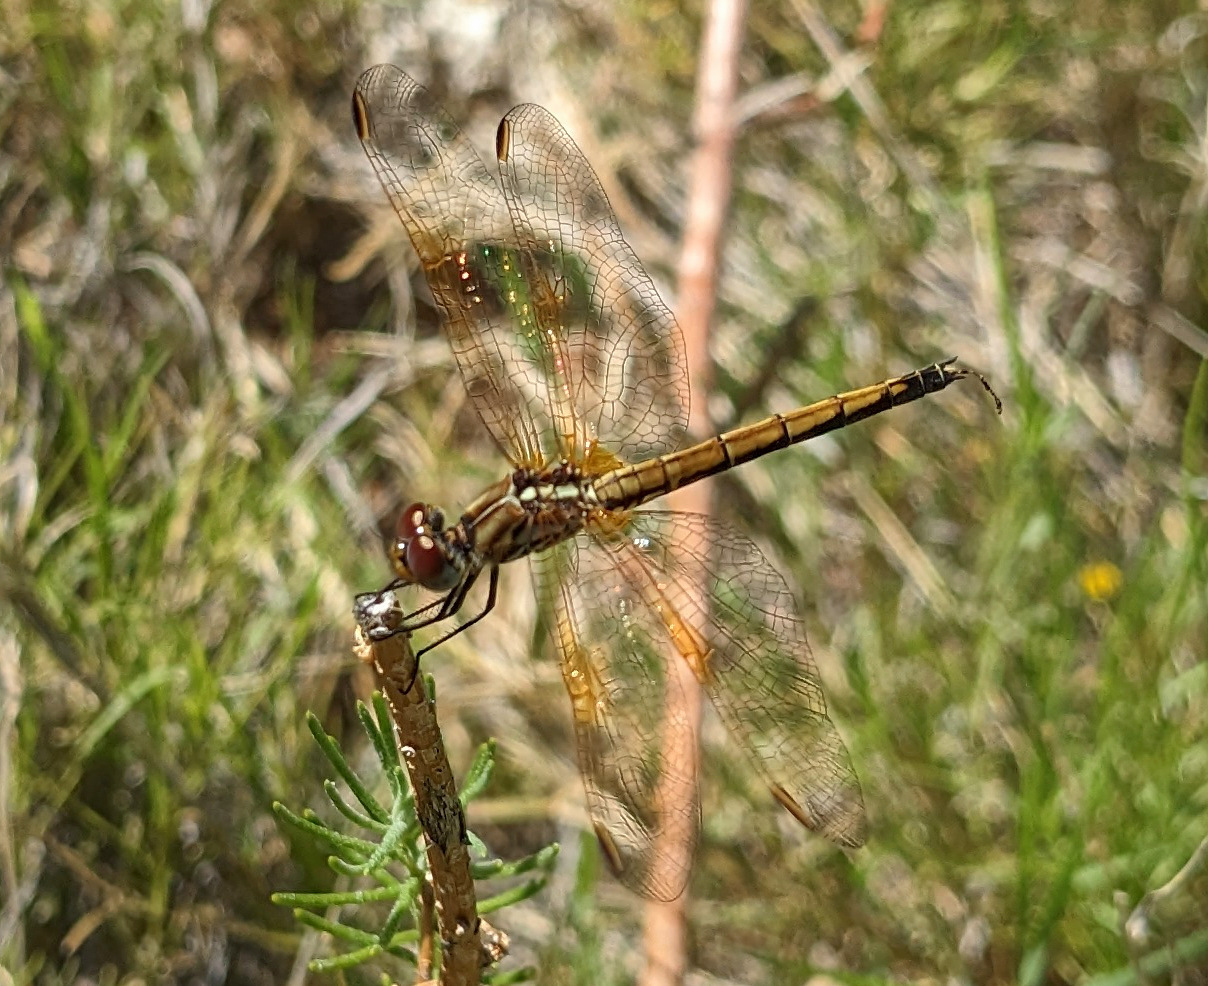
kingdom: Animalia
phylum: Arthropoda
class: Insecta
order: Odonata
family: Libellulidae
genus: Trithemis
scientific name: Trithemis arteriosa
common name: Red-veined dropwing
